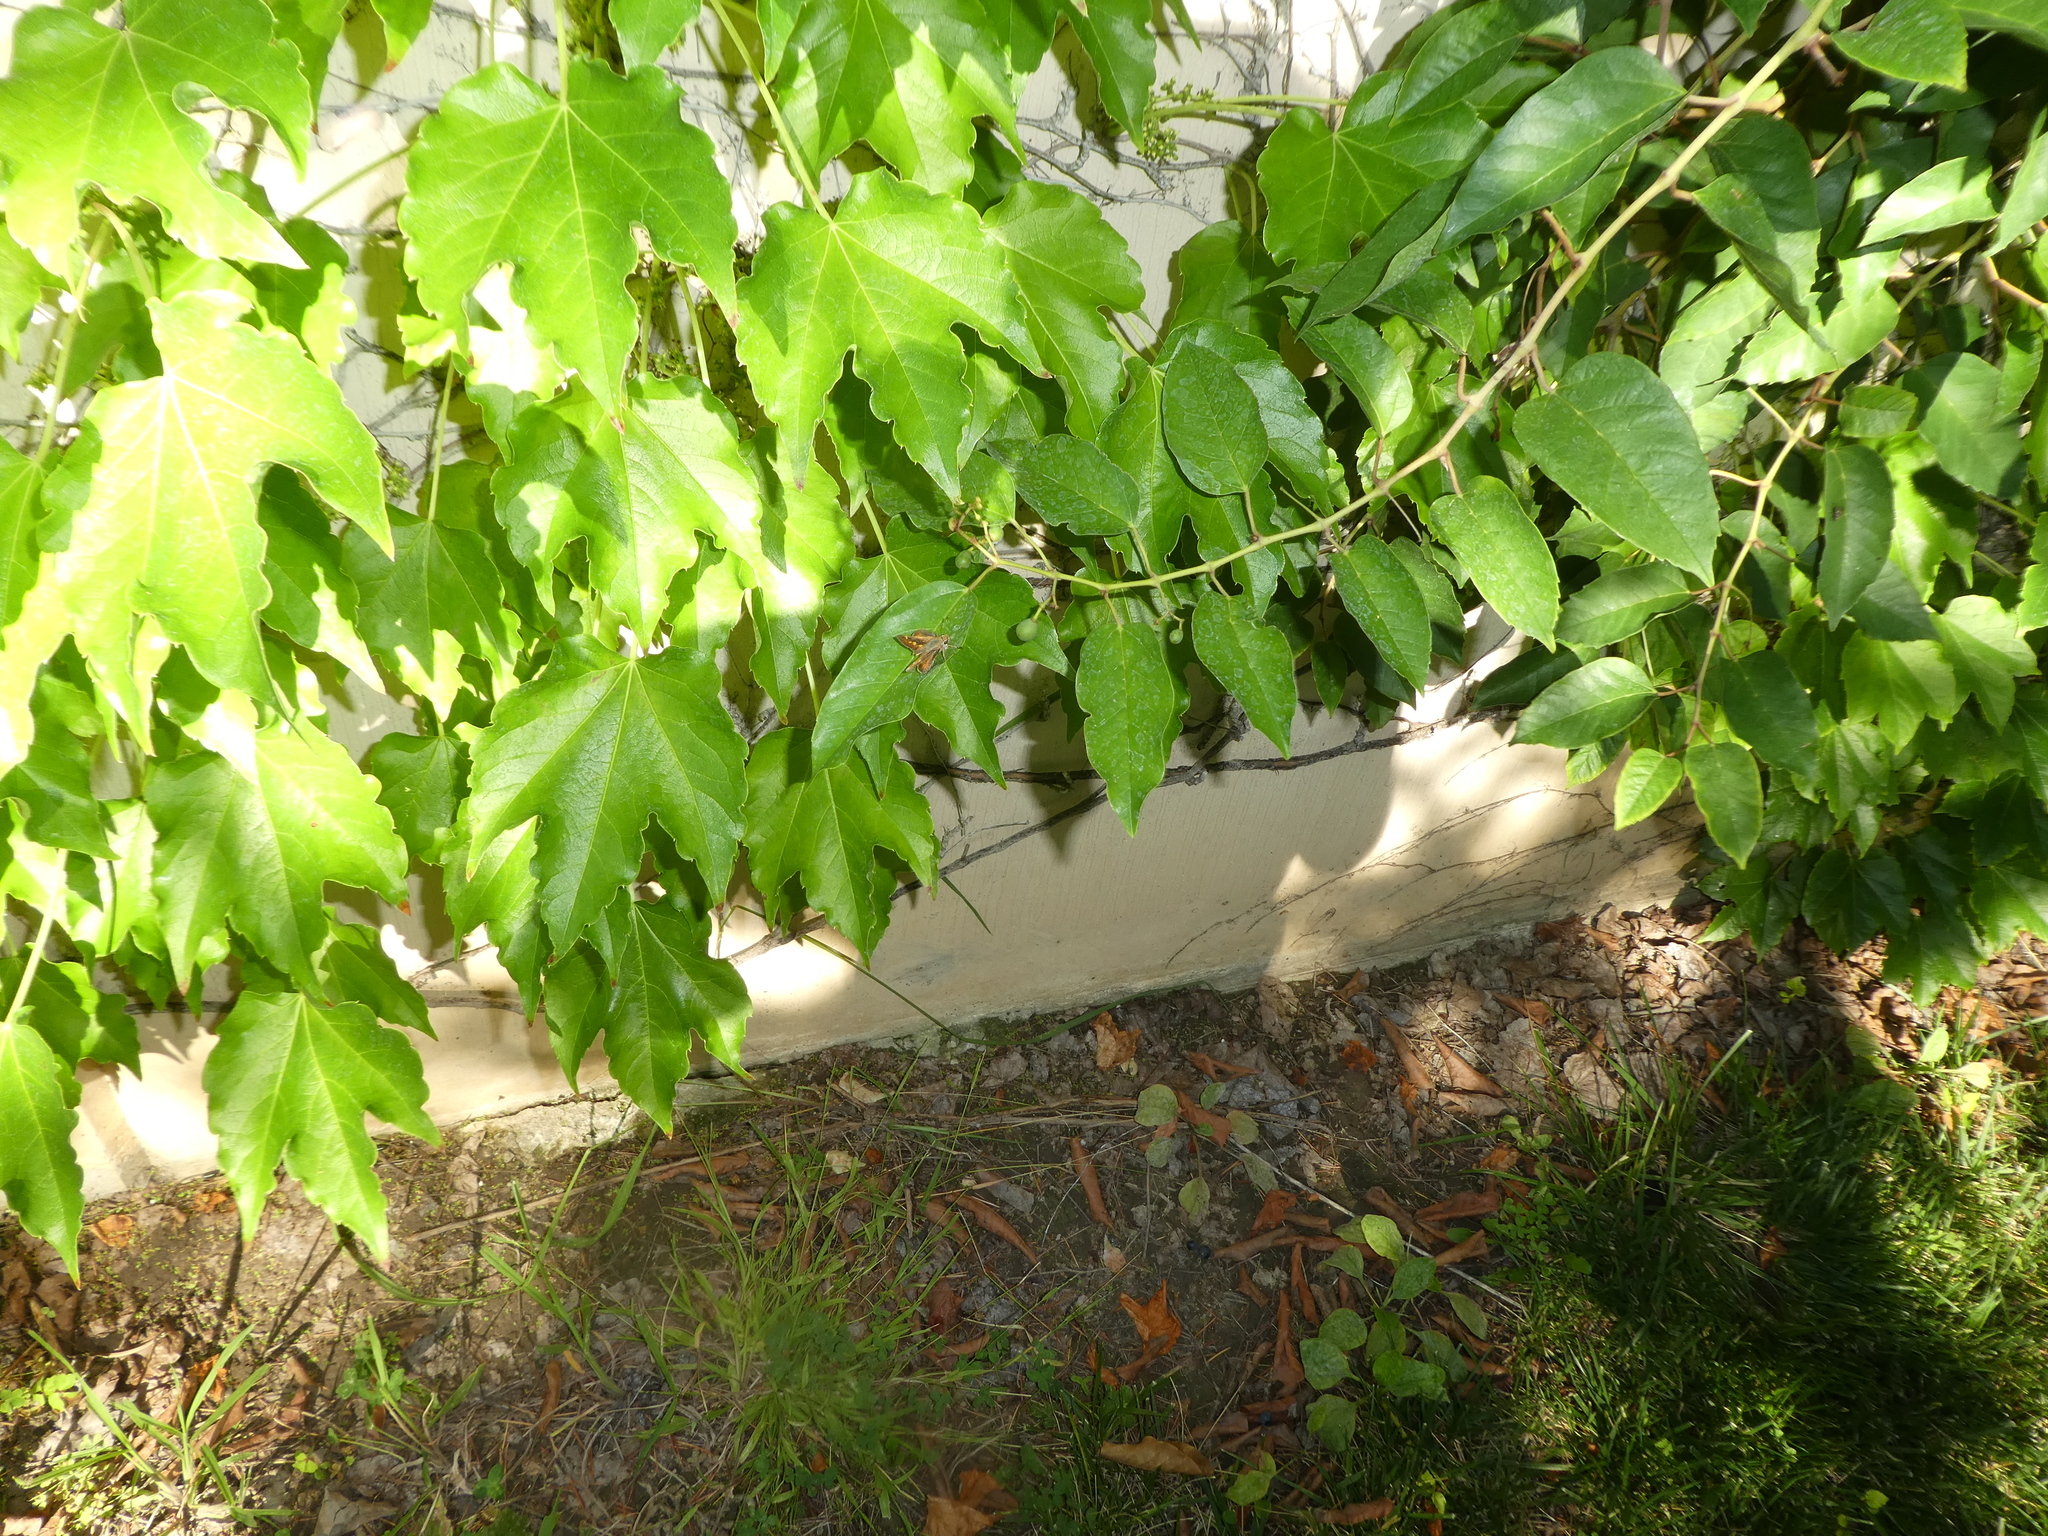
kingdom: Animalia
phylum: Arthropoda
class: Insecta
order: Lepidoptera
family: Hesperiidae
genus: Lon
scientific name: Lon melane
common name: Umber skipper
